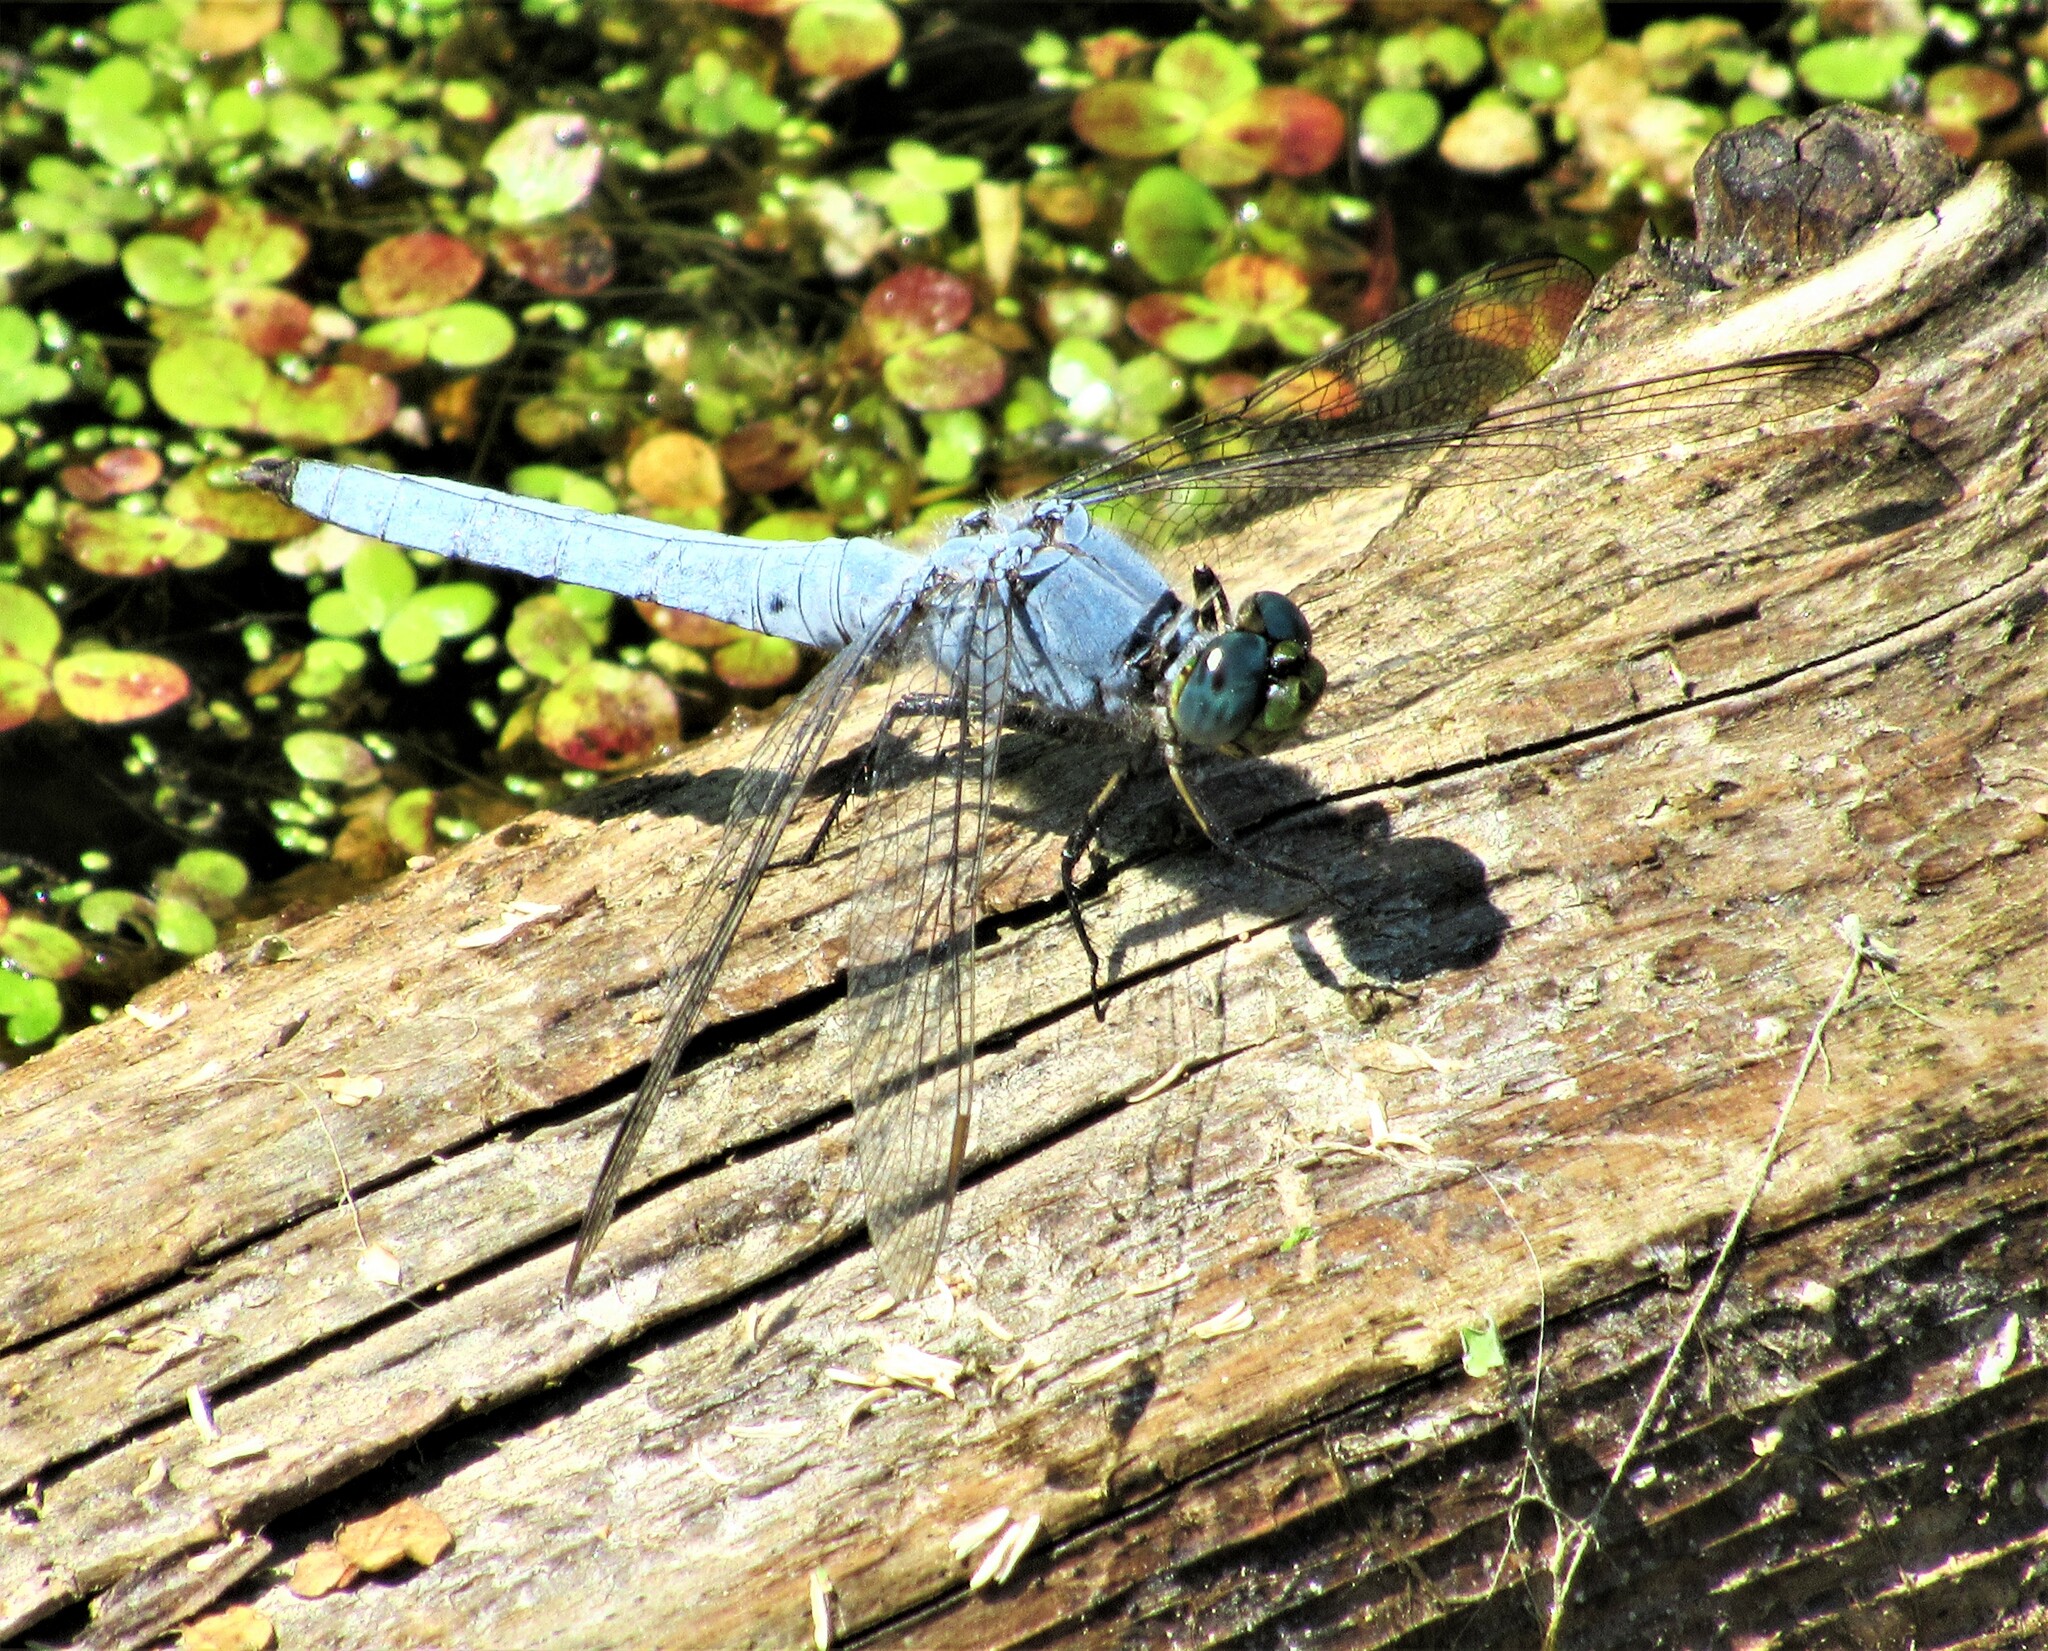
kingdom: Animalia
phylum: Arthropoda
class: Insecta
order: Odonata
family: Libellulidae
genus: Erythemis
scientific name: Erythemis collocata
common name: Western pondhawk
